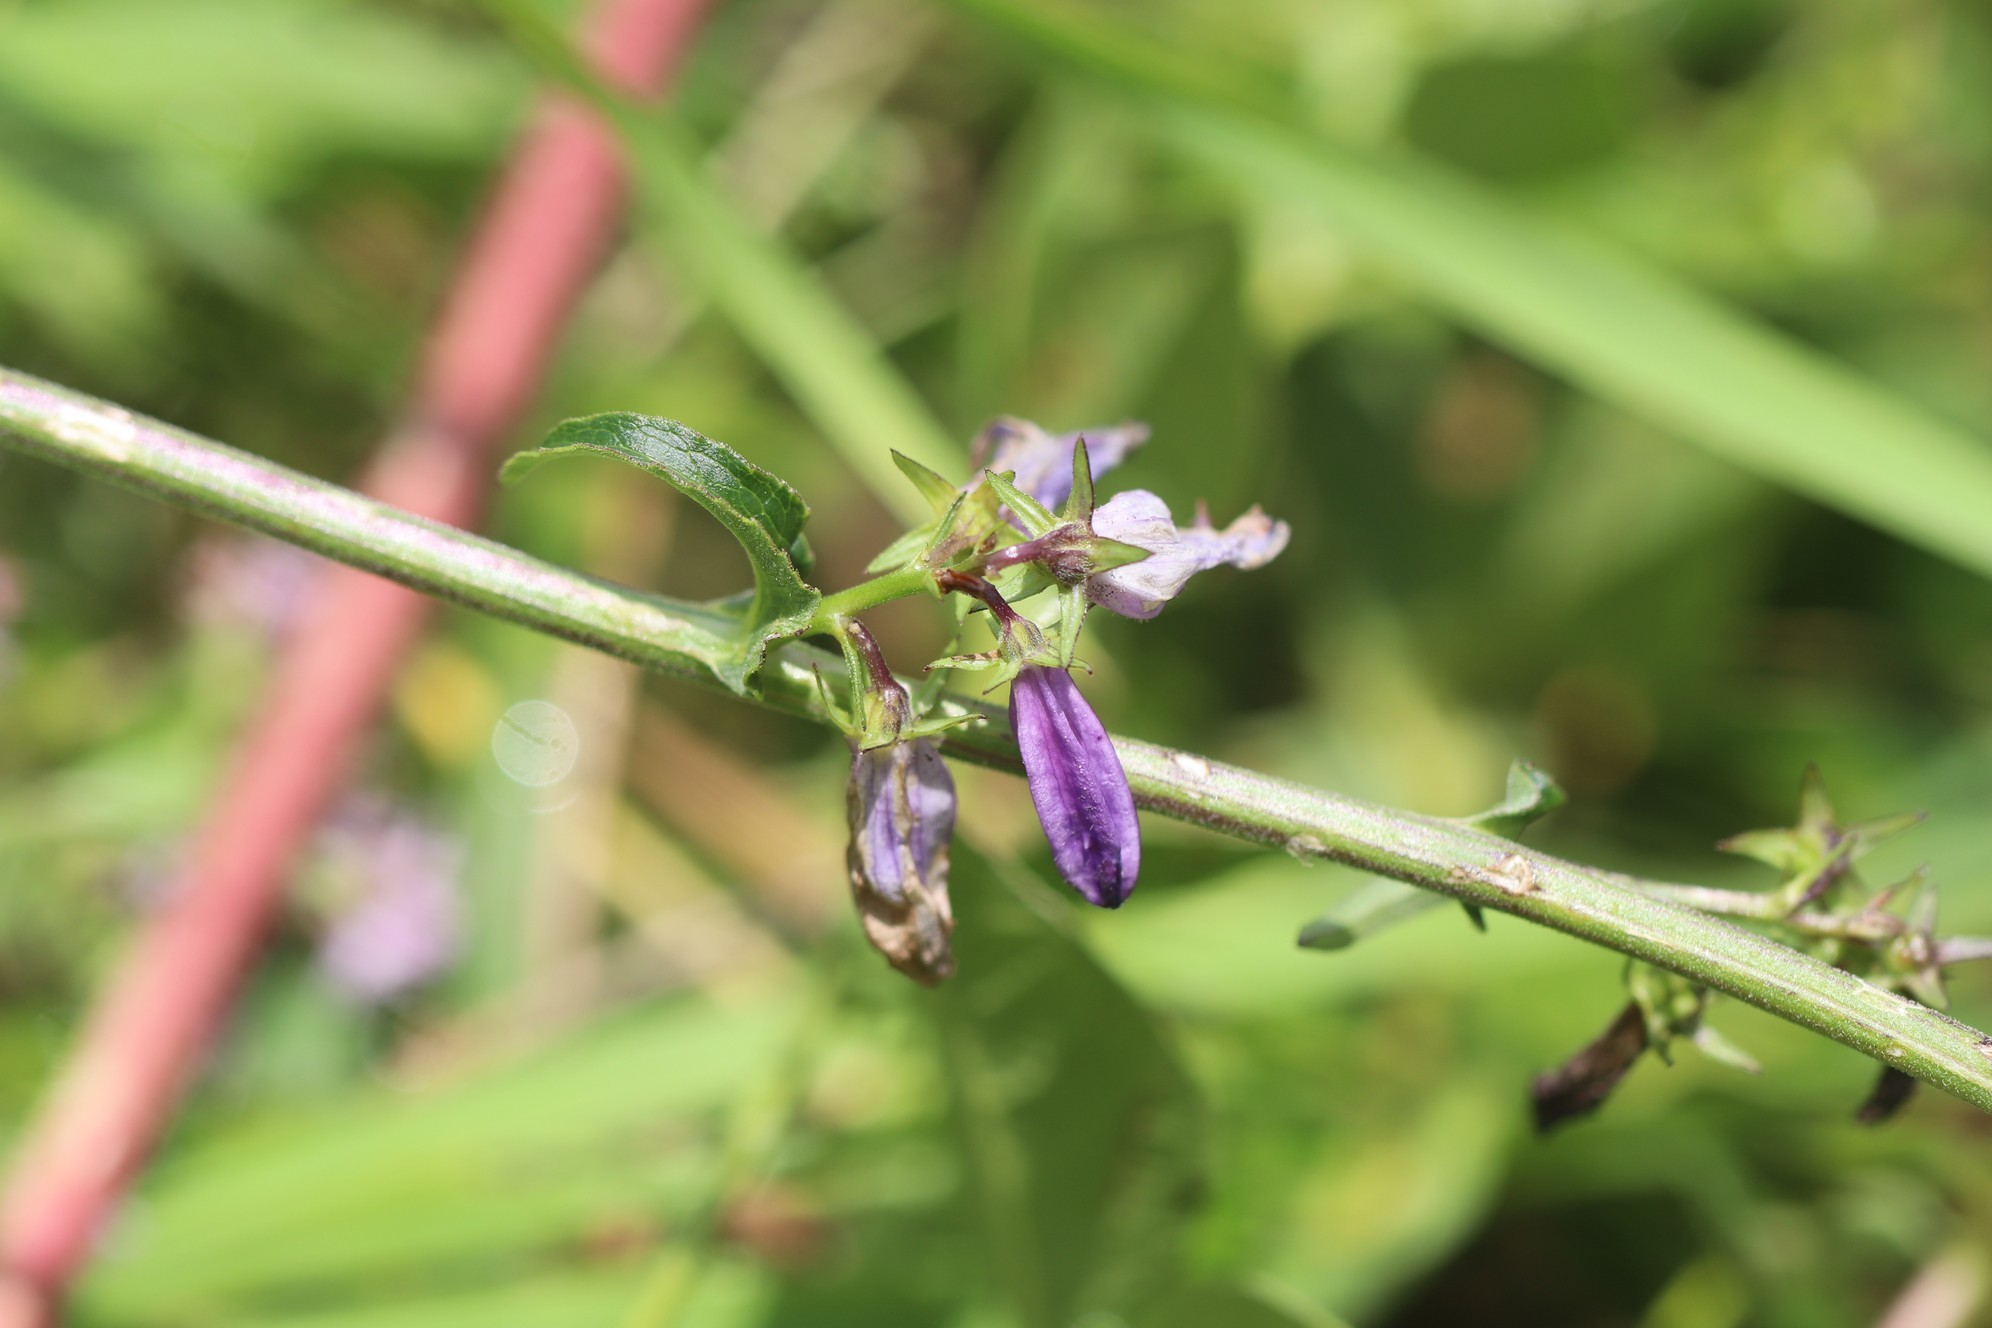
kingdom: Plantae
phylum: Tracheophyta
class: Magnoliopsida
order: Asterales
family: Campanulaceae
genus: Campanula
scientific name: Campanula bononiensis
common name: Pale bellflower
